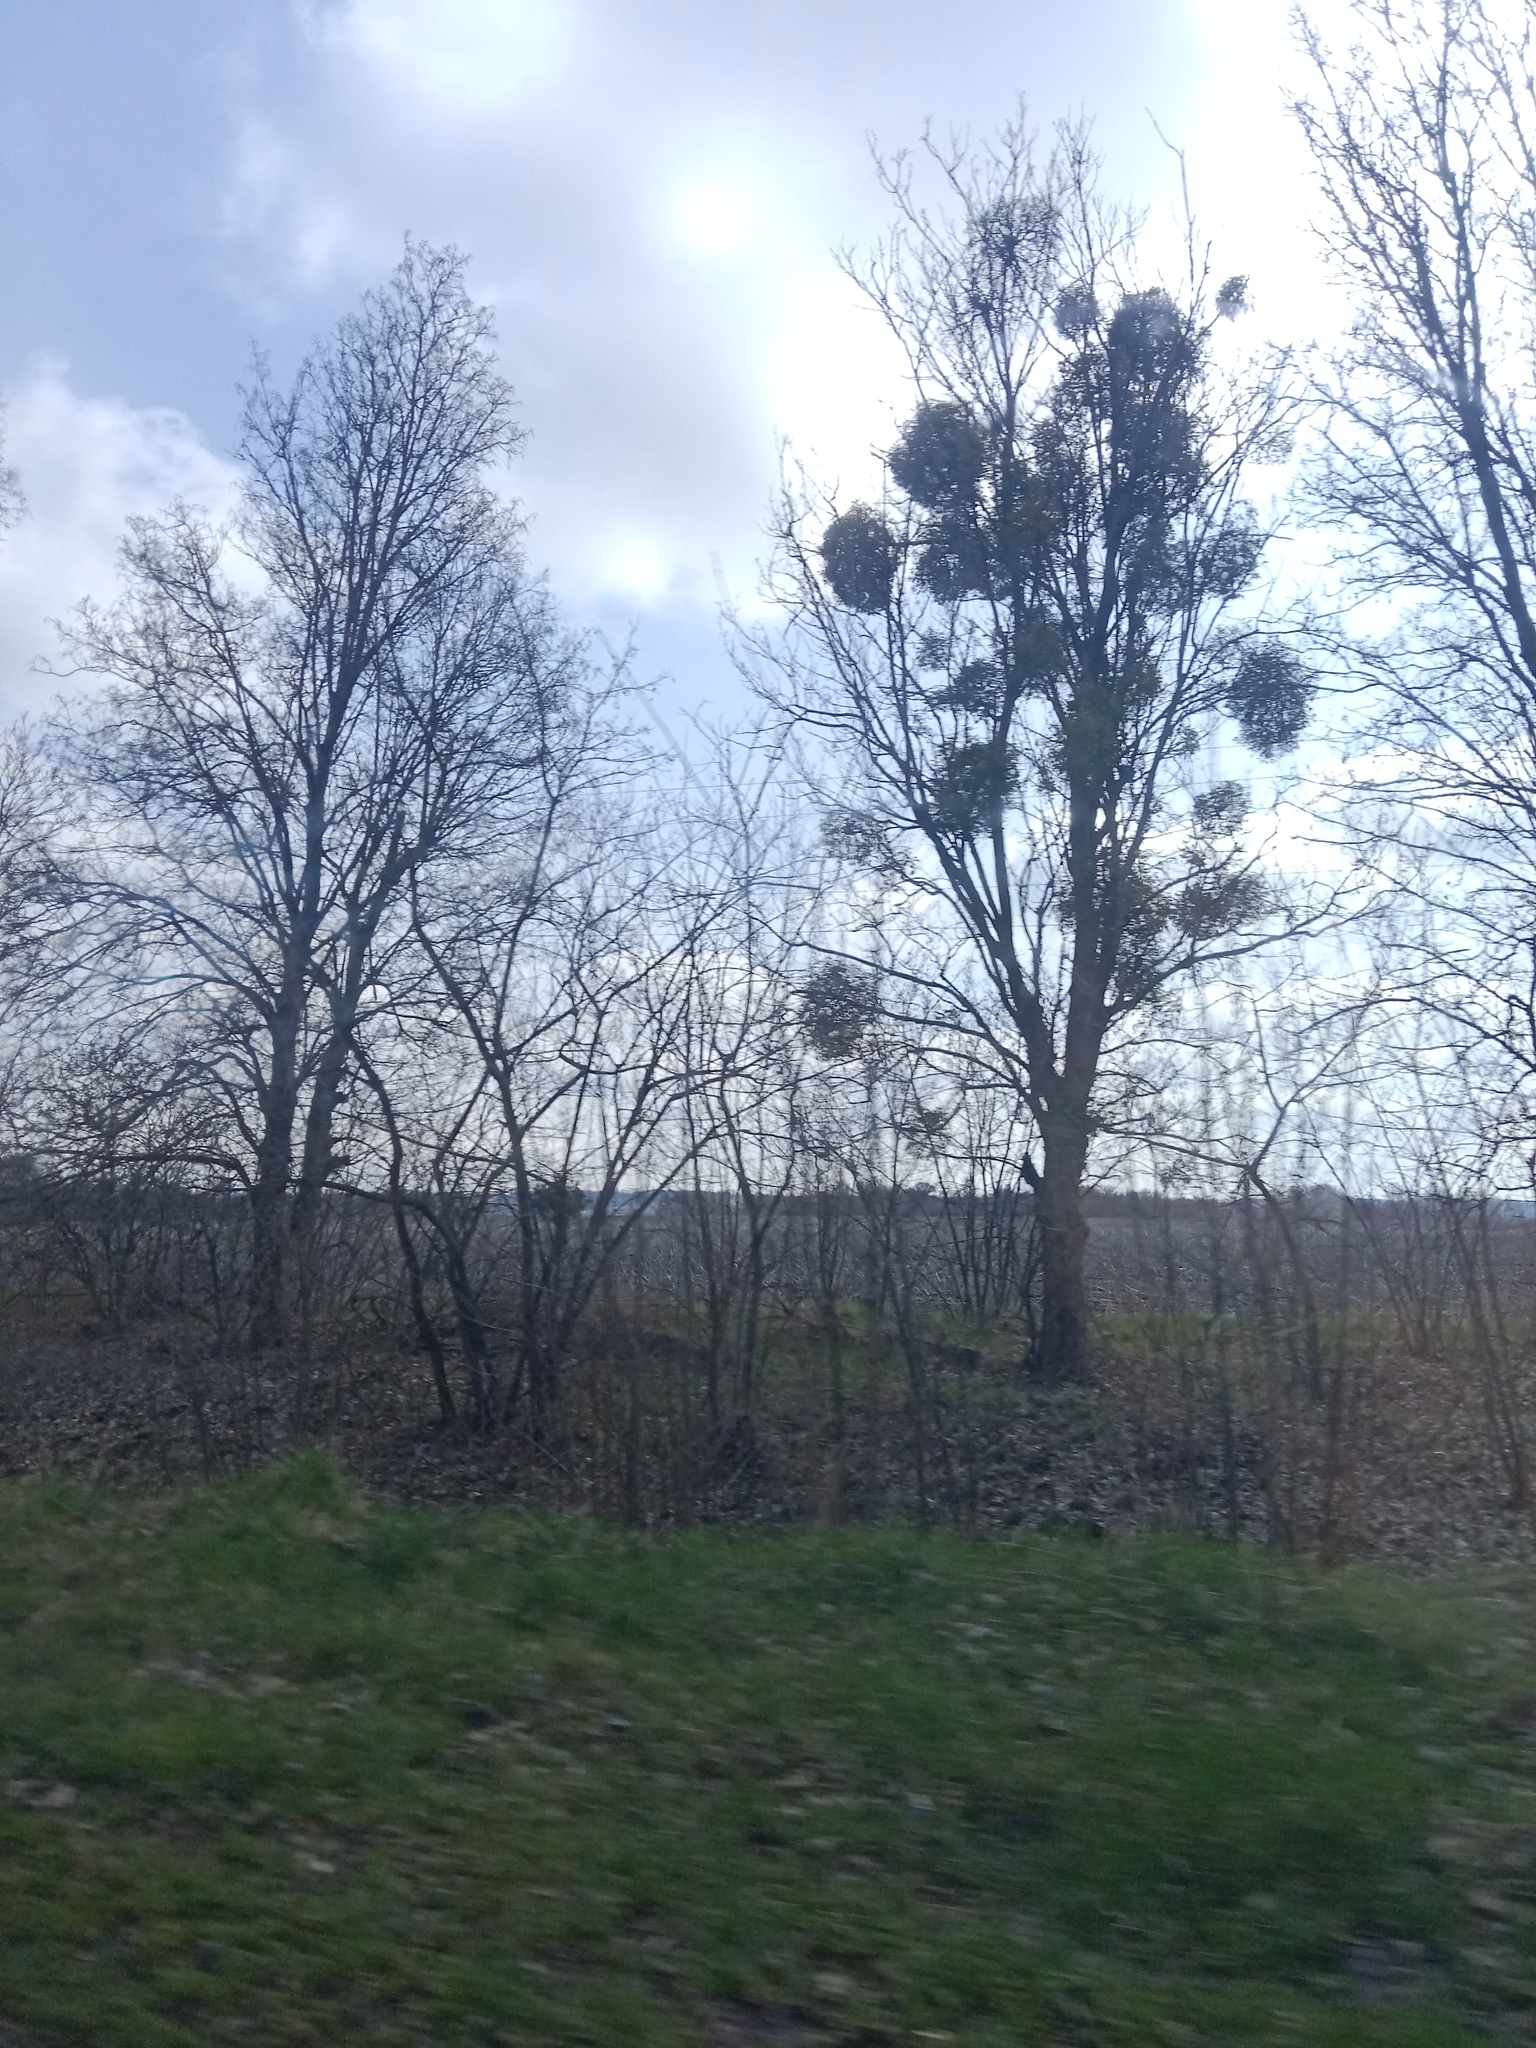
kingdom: Plantae
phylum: Tracheophyta
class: Magnoliopsida
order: Santalales
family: Viscaceae
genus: Viscum
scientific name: Viscum album
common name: Mistletoe
